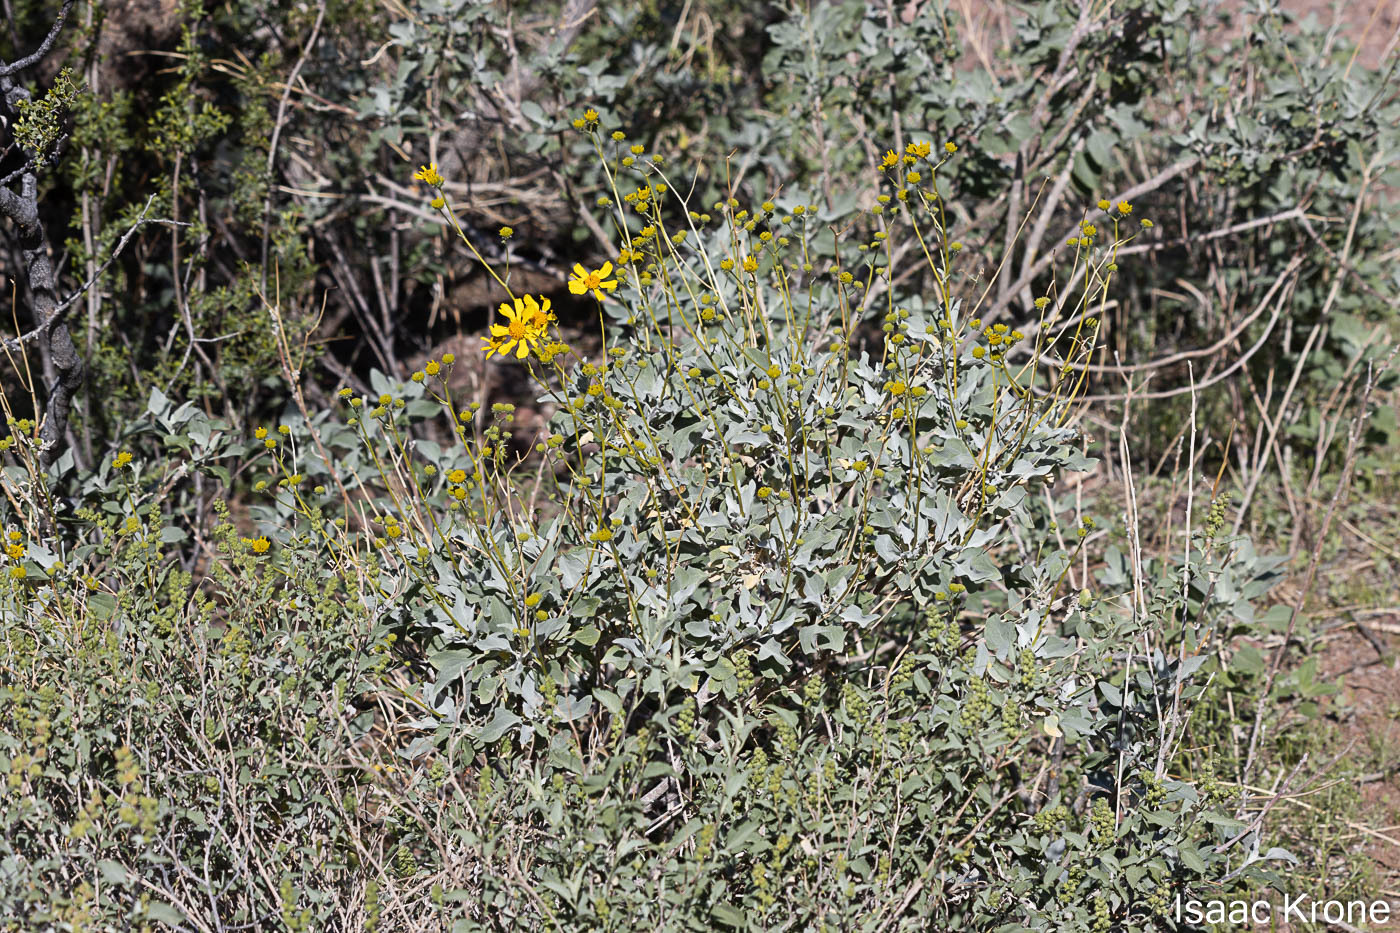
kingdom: Plantae
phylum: Tracheophyta
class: Magnoliopsida
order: Asterales
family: Asteraceae
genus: Encelia
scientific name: Encelia farinosa
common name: Brittlebush
